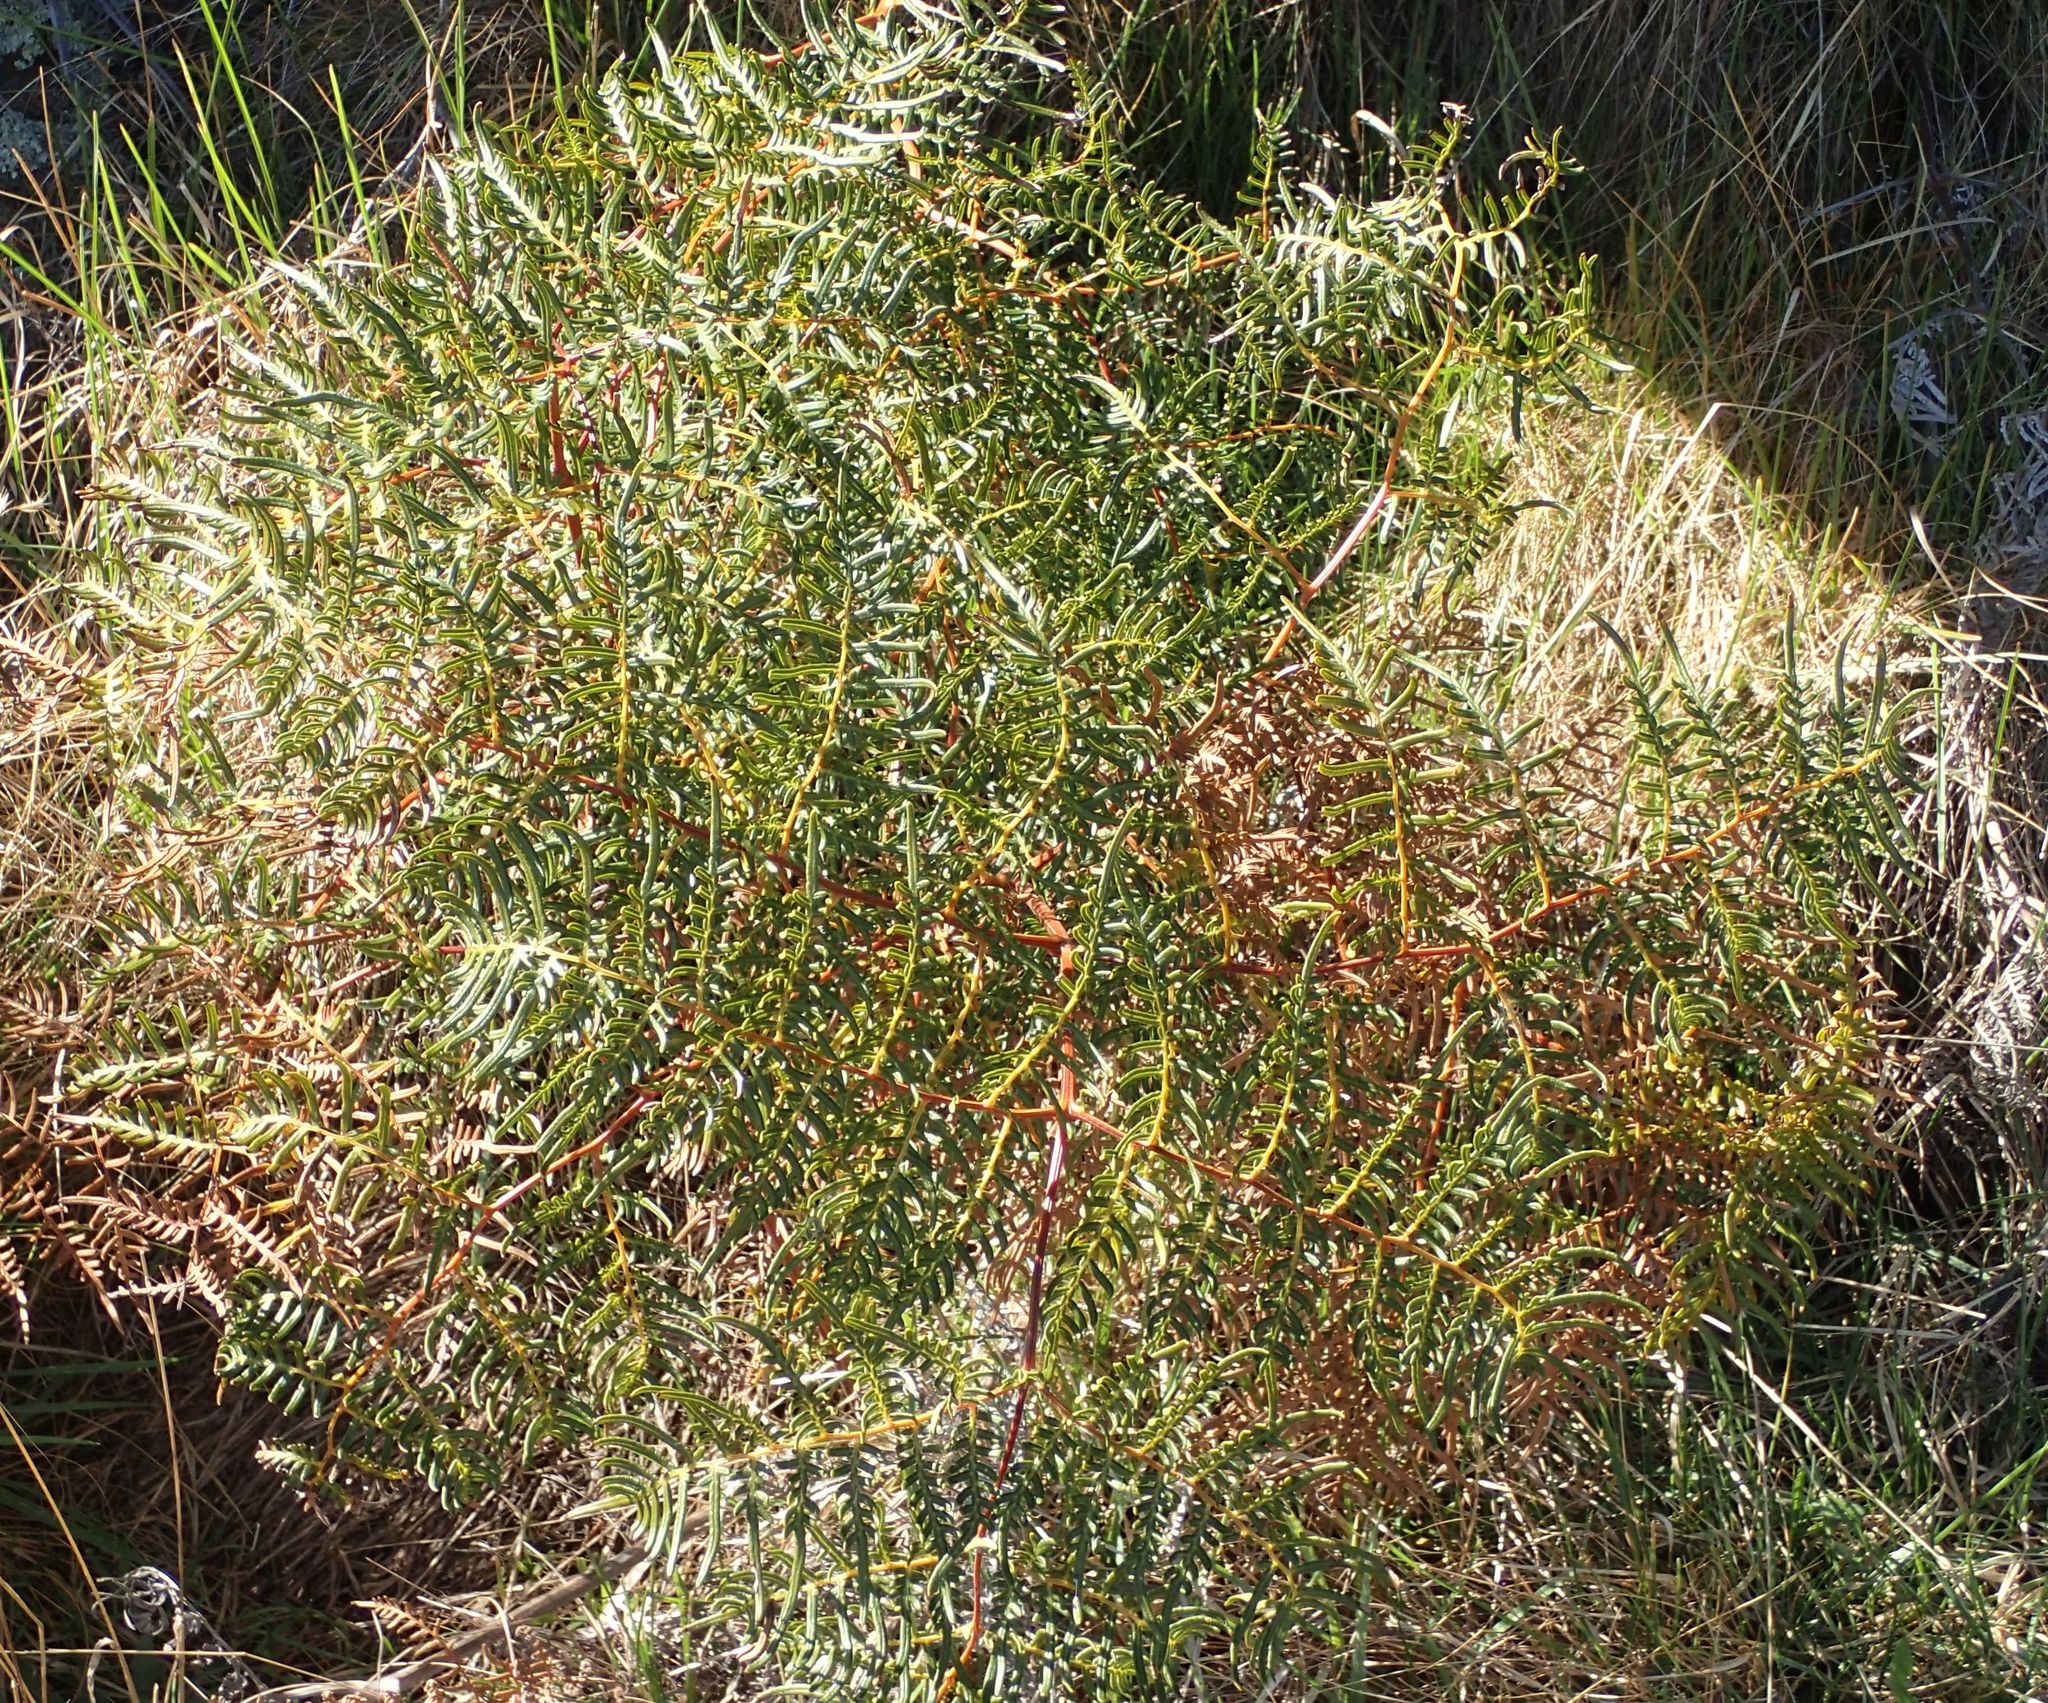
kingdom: Plantae
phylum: Tracheophyta
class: Polypodiopsida
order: Polypodiales
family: Dennstaedtiaceae
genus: Pteridium
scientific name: Pteridium esculentum
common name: Bracken fern
